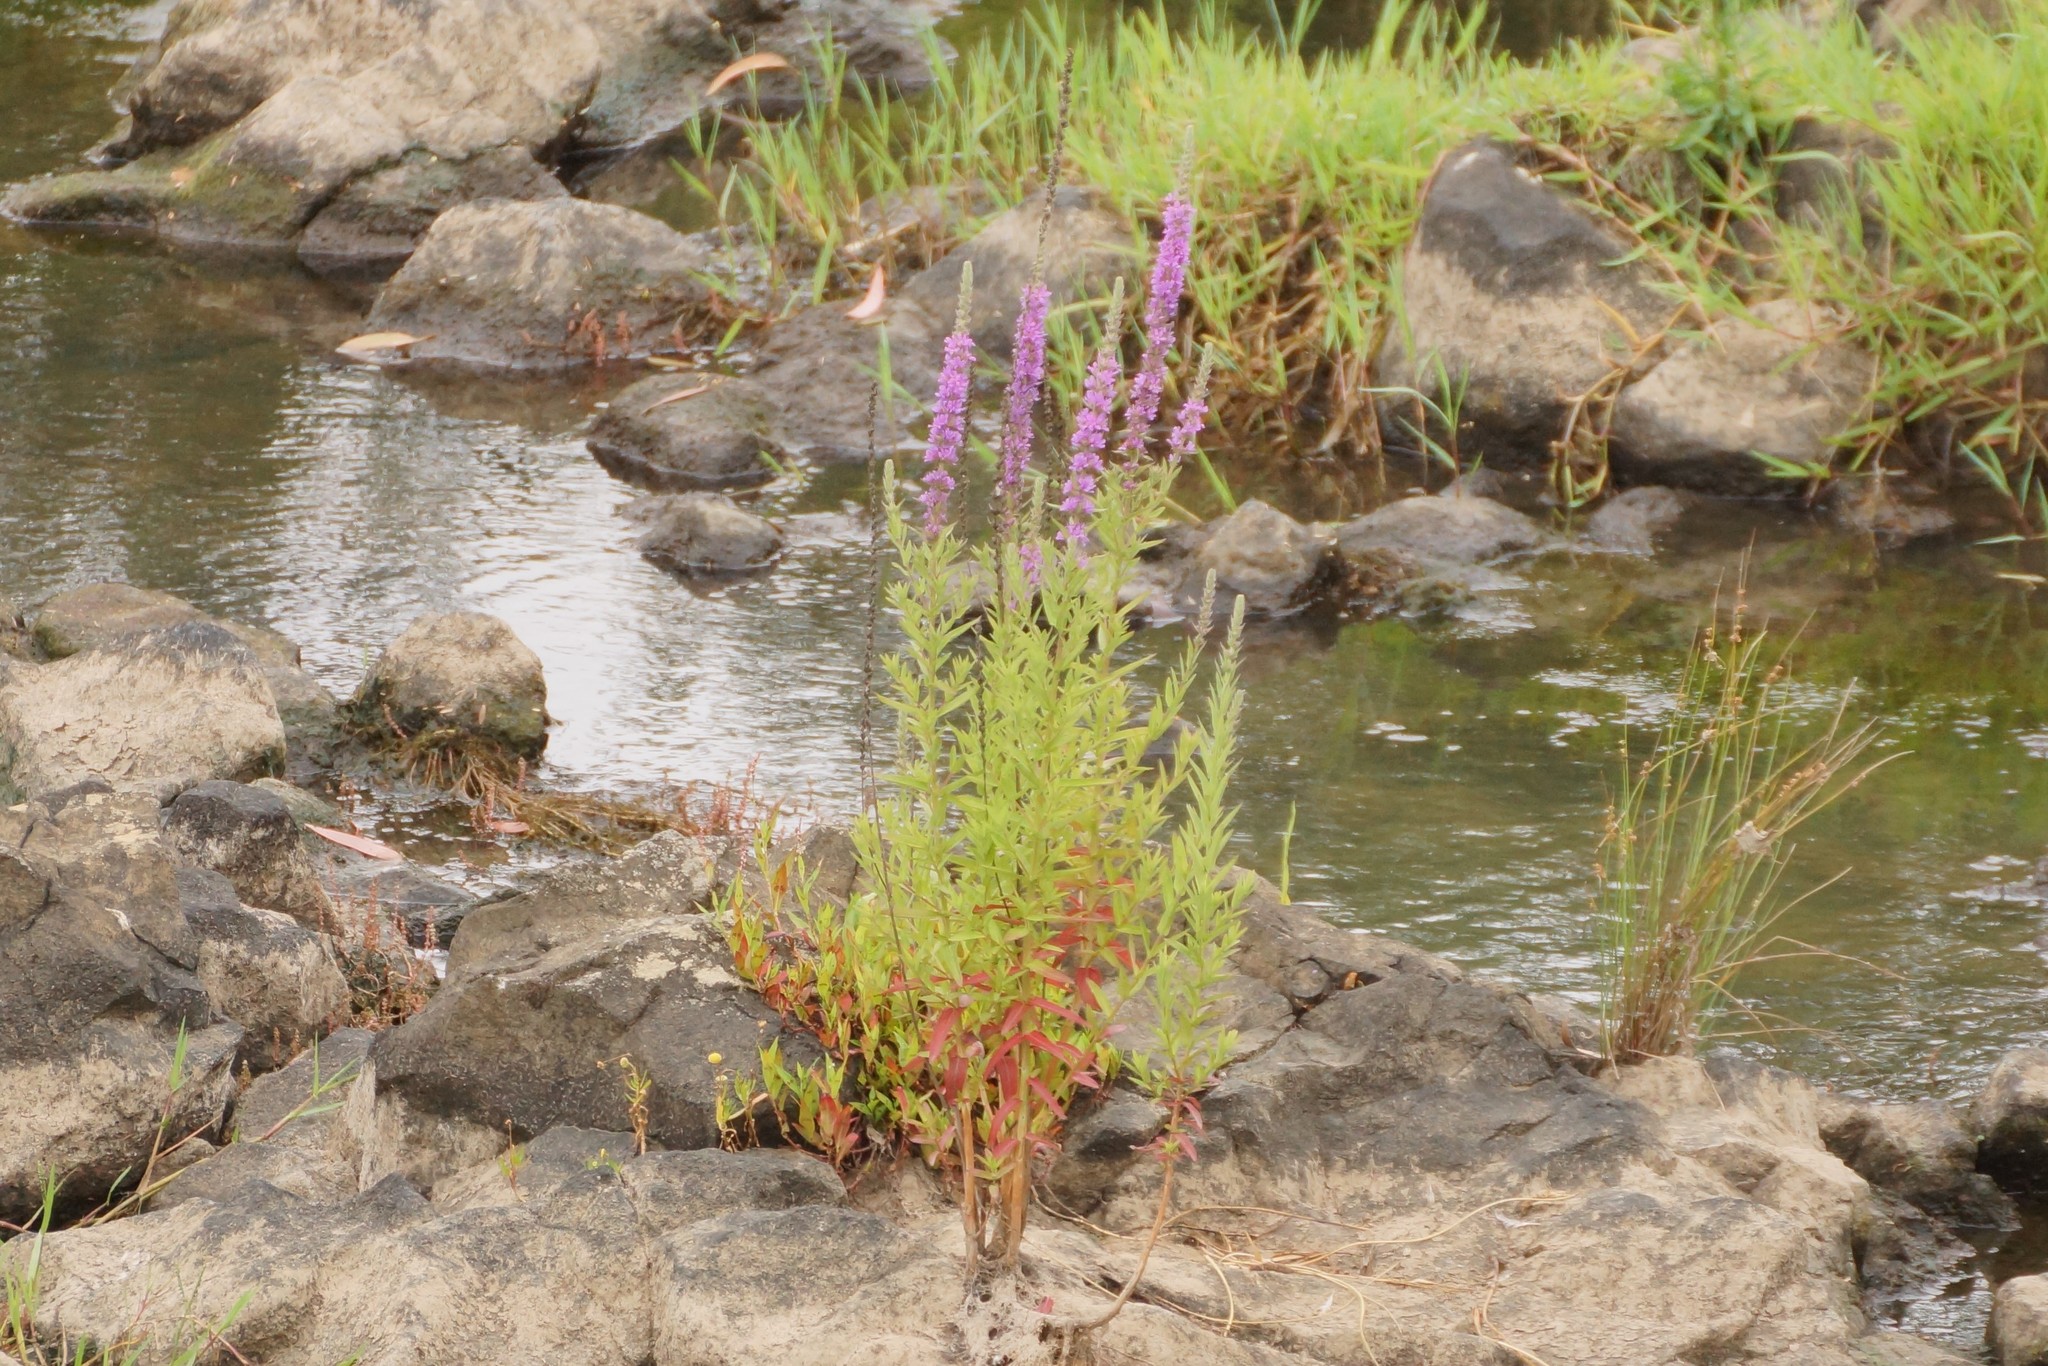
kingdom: Plantae
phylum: Tracheophyta
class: Magnoliopsida
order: Myrtales
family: Lythraceae
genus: Lythrum
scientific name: Lythrum salicaria
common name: Purple loosestrife
